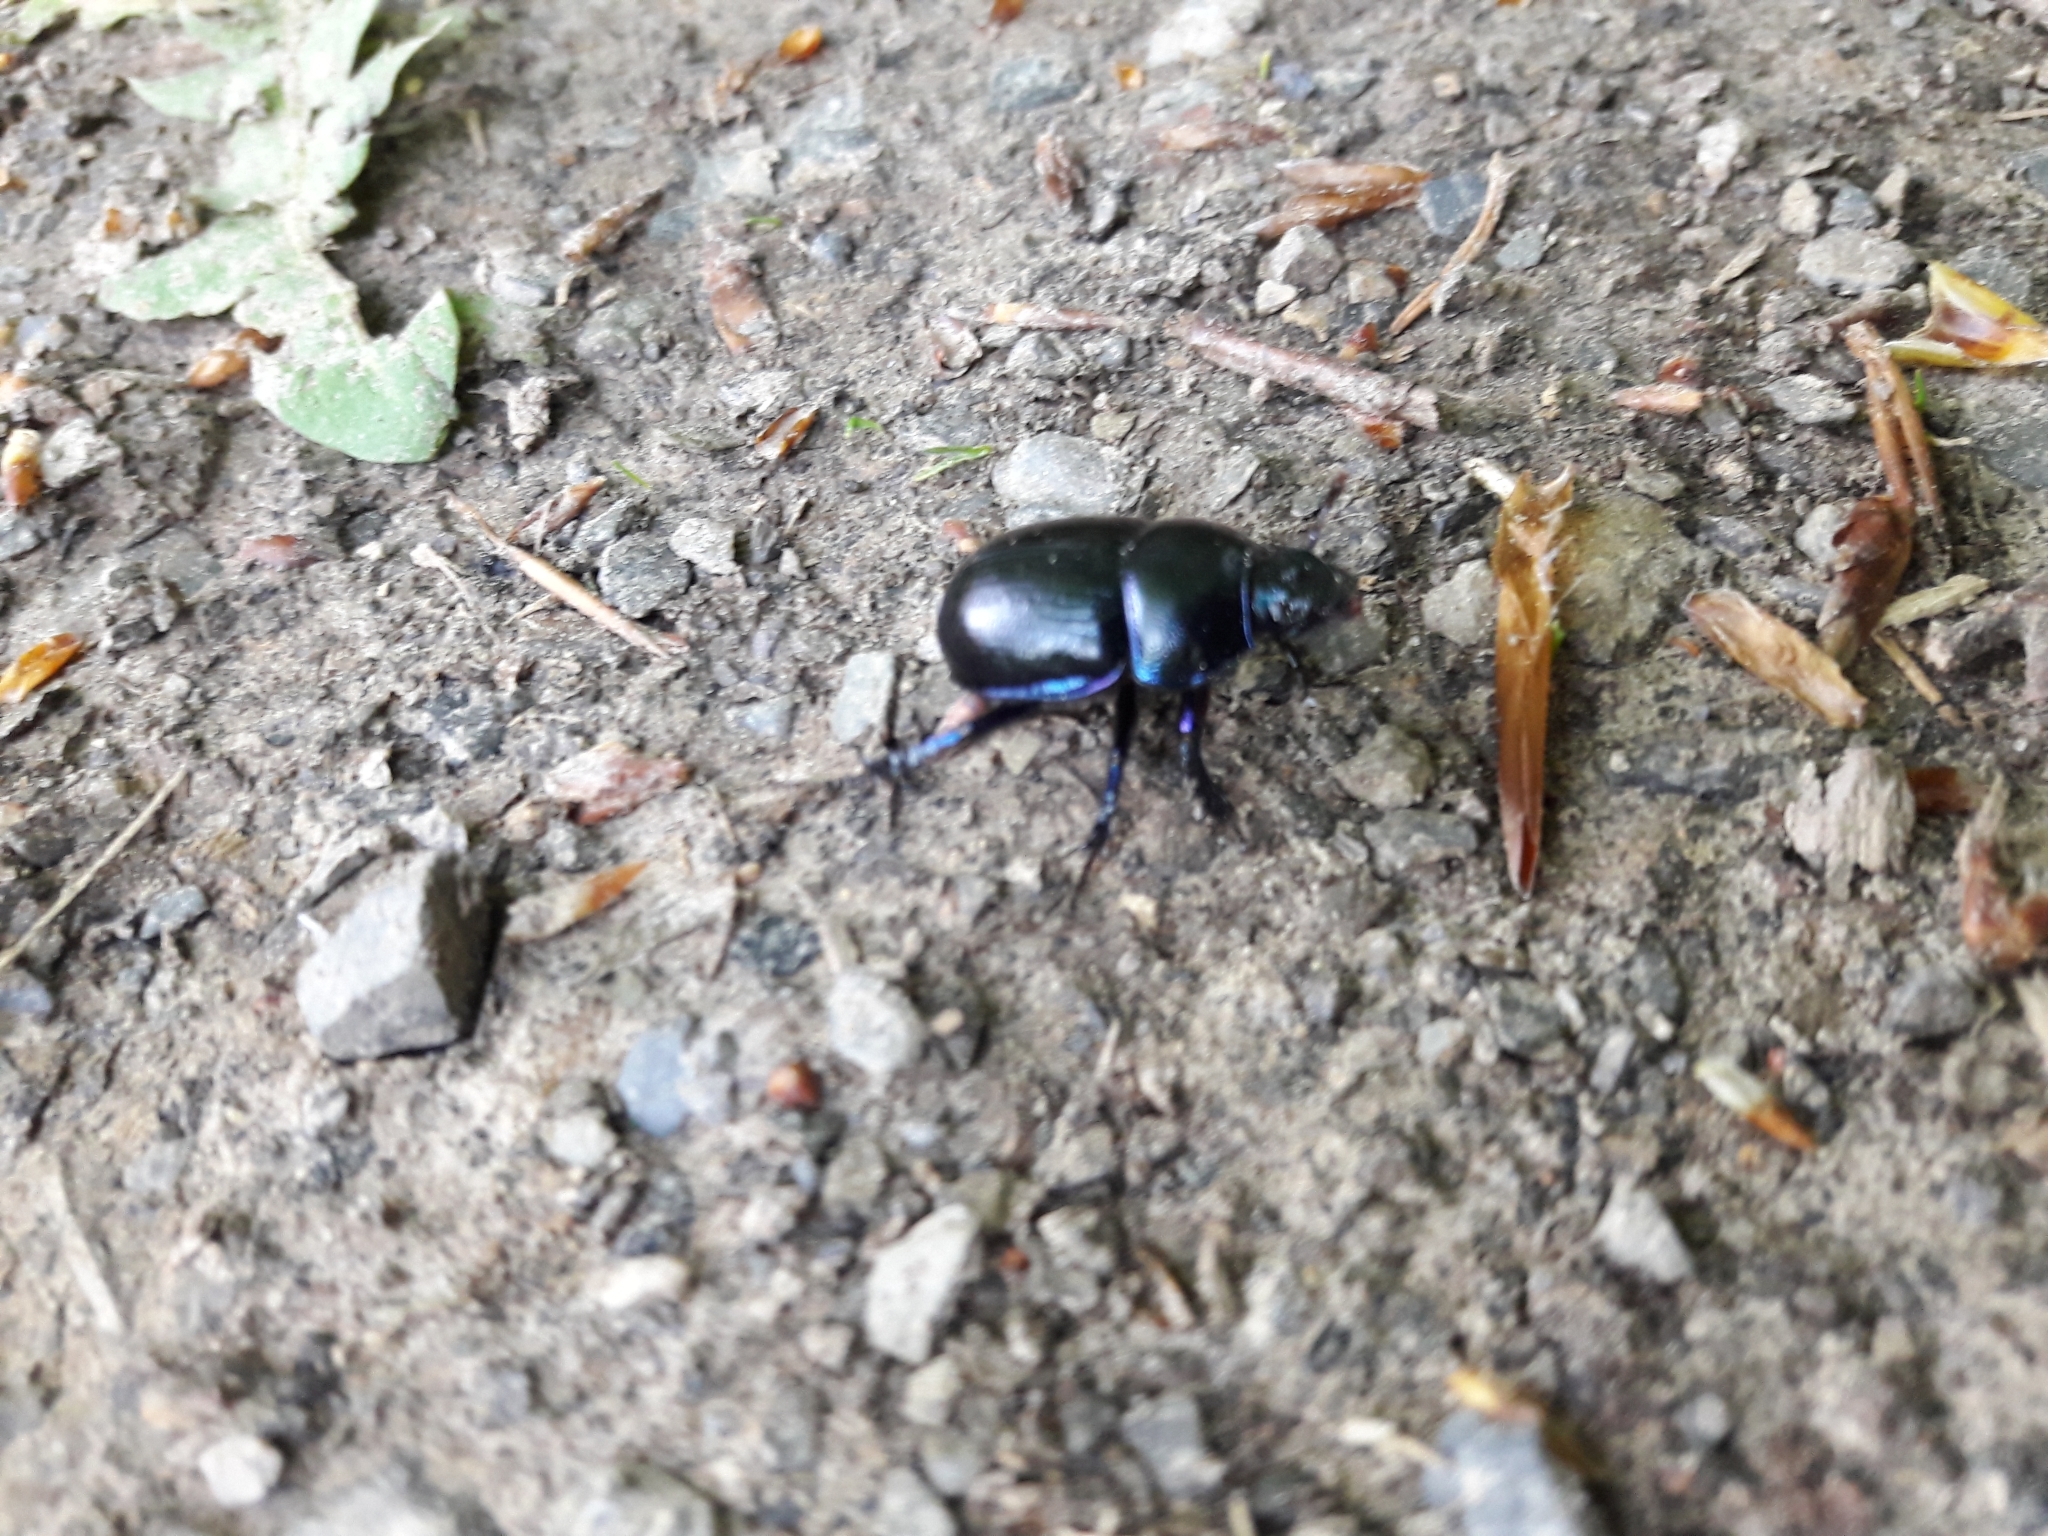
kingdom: Animalia
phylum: Arthropoda
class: Insecta
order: Coleoptera
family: Geotrupidae
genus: Anoplotrupes
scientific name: Anoplotrupes stercorosus
